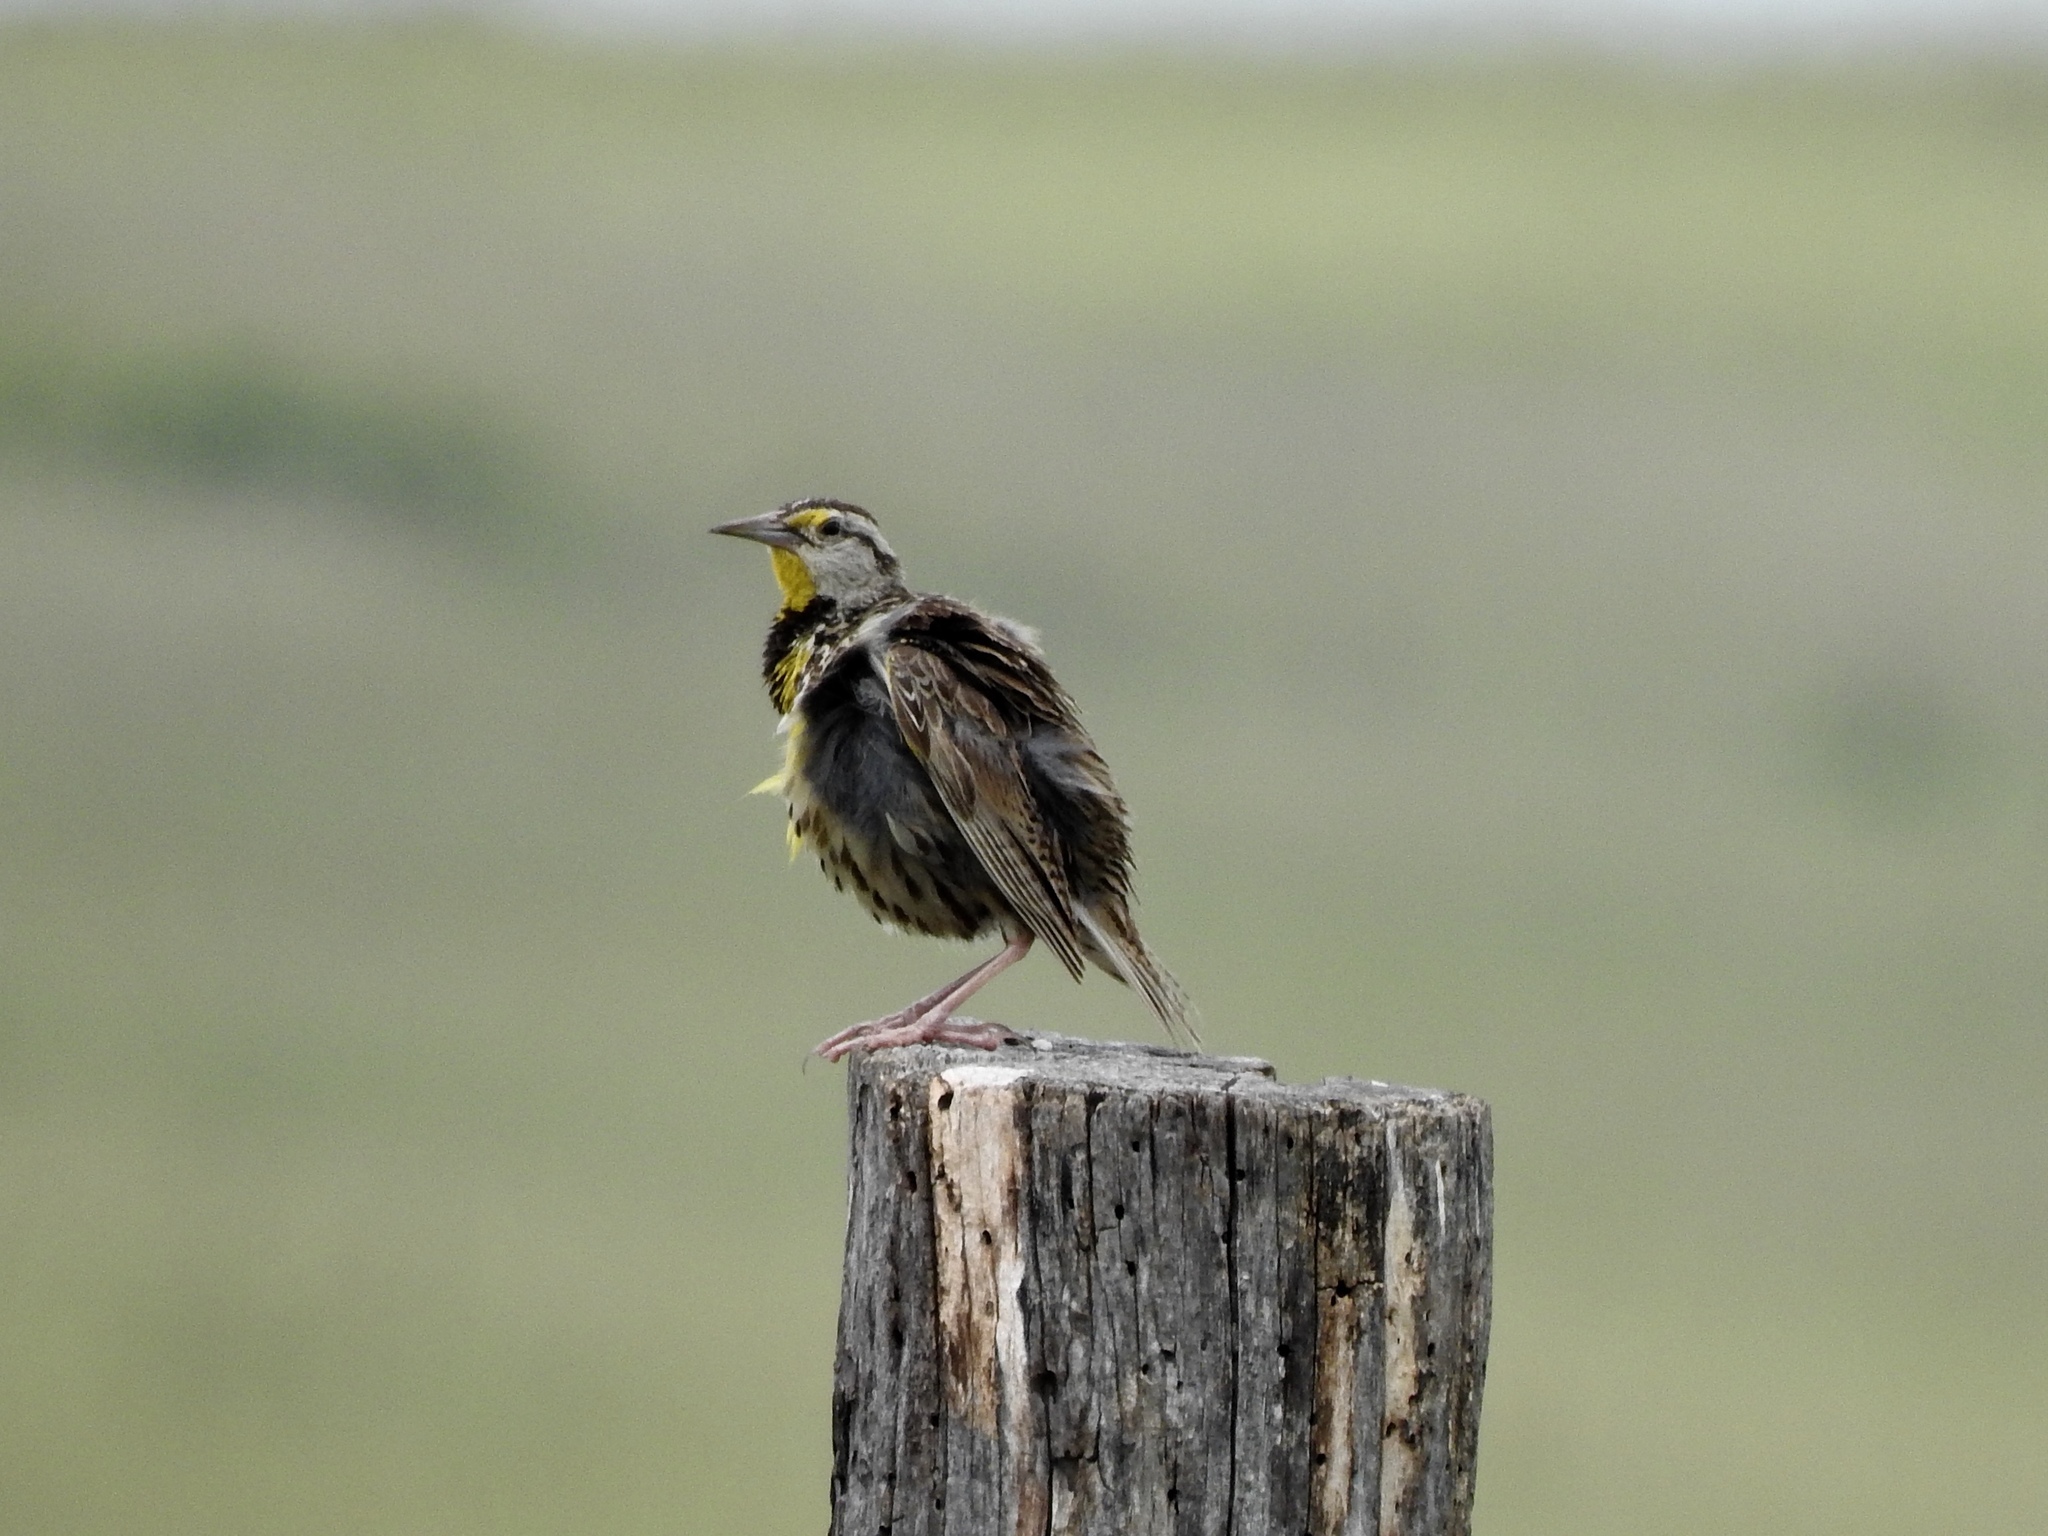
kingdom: Animalia
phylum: Chordata
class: Aves
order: Passeriformes
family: Icteridae
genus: Sturnella
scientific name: Sturnella magna
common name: Eastern meadowlark
